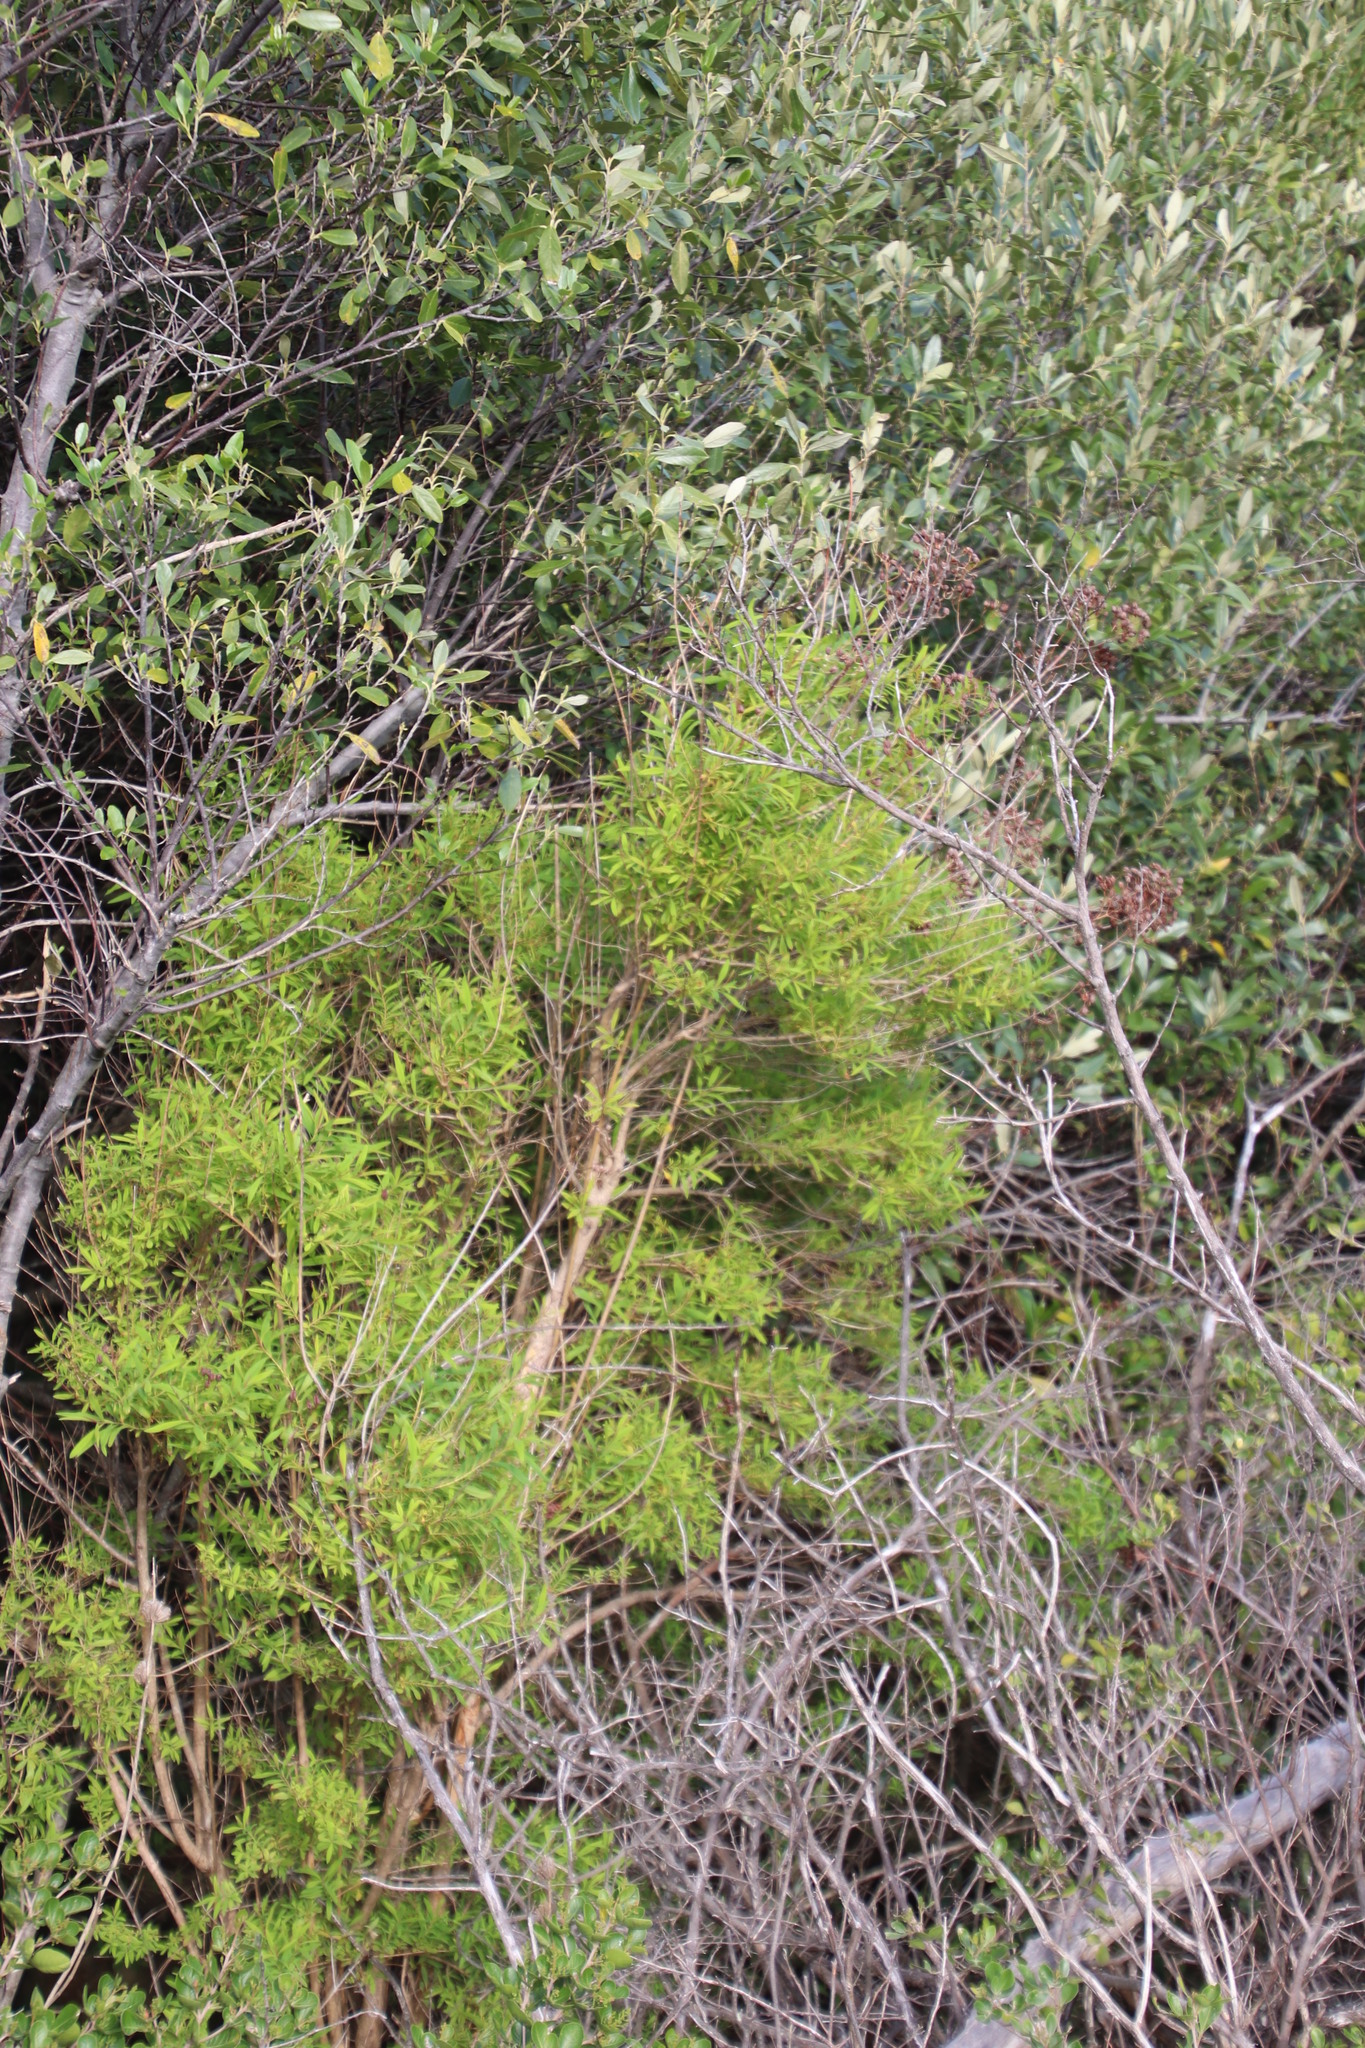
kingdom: Plantae
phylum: Tracheophyta
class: Magnoliopsida
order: Malpighiales
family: Hypericaceae
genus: Hypericum
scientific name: Hypericum canariense
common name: Canary island st. johnswort
